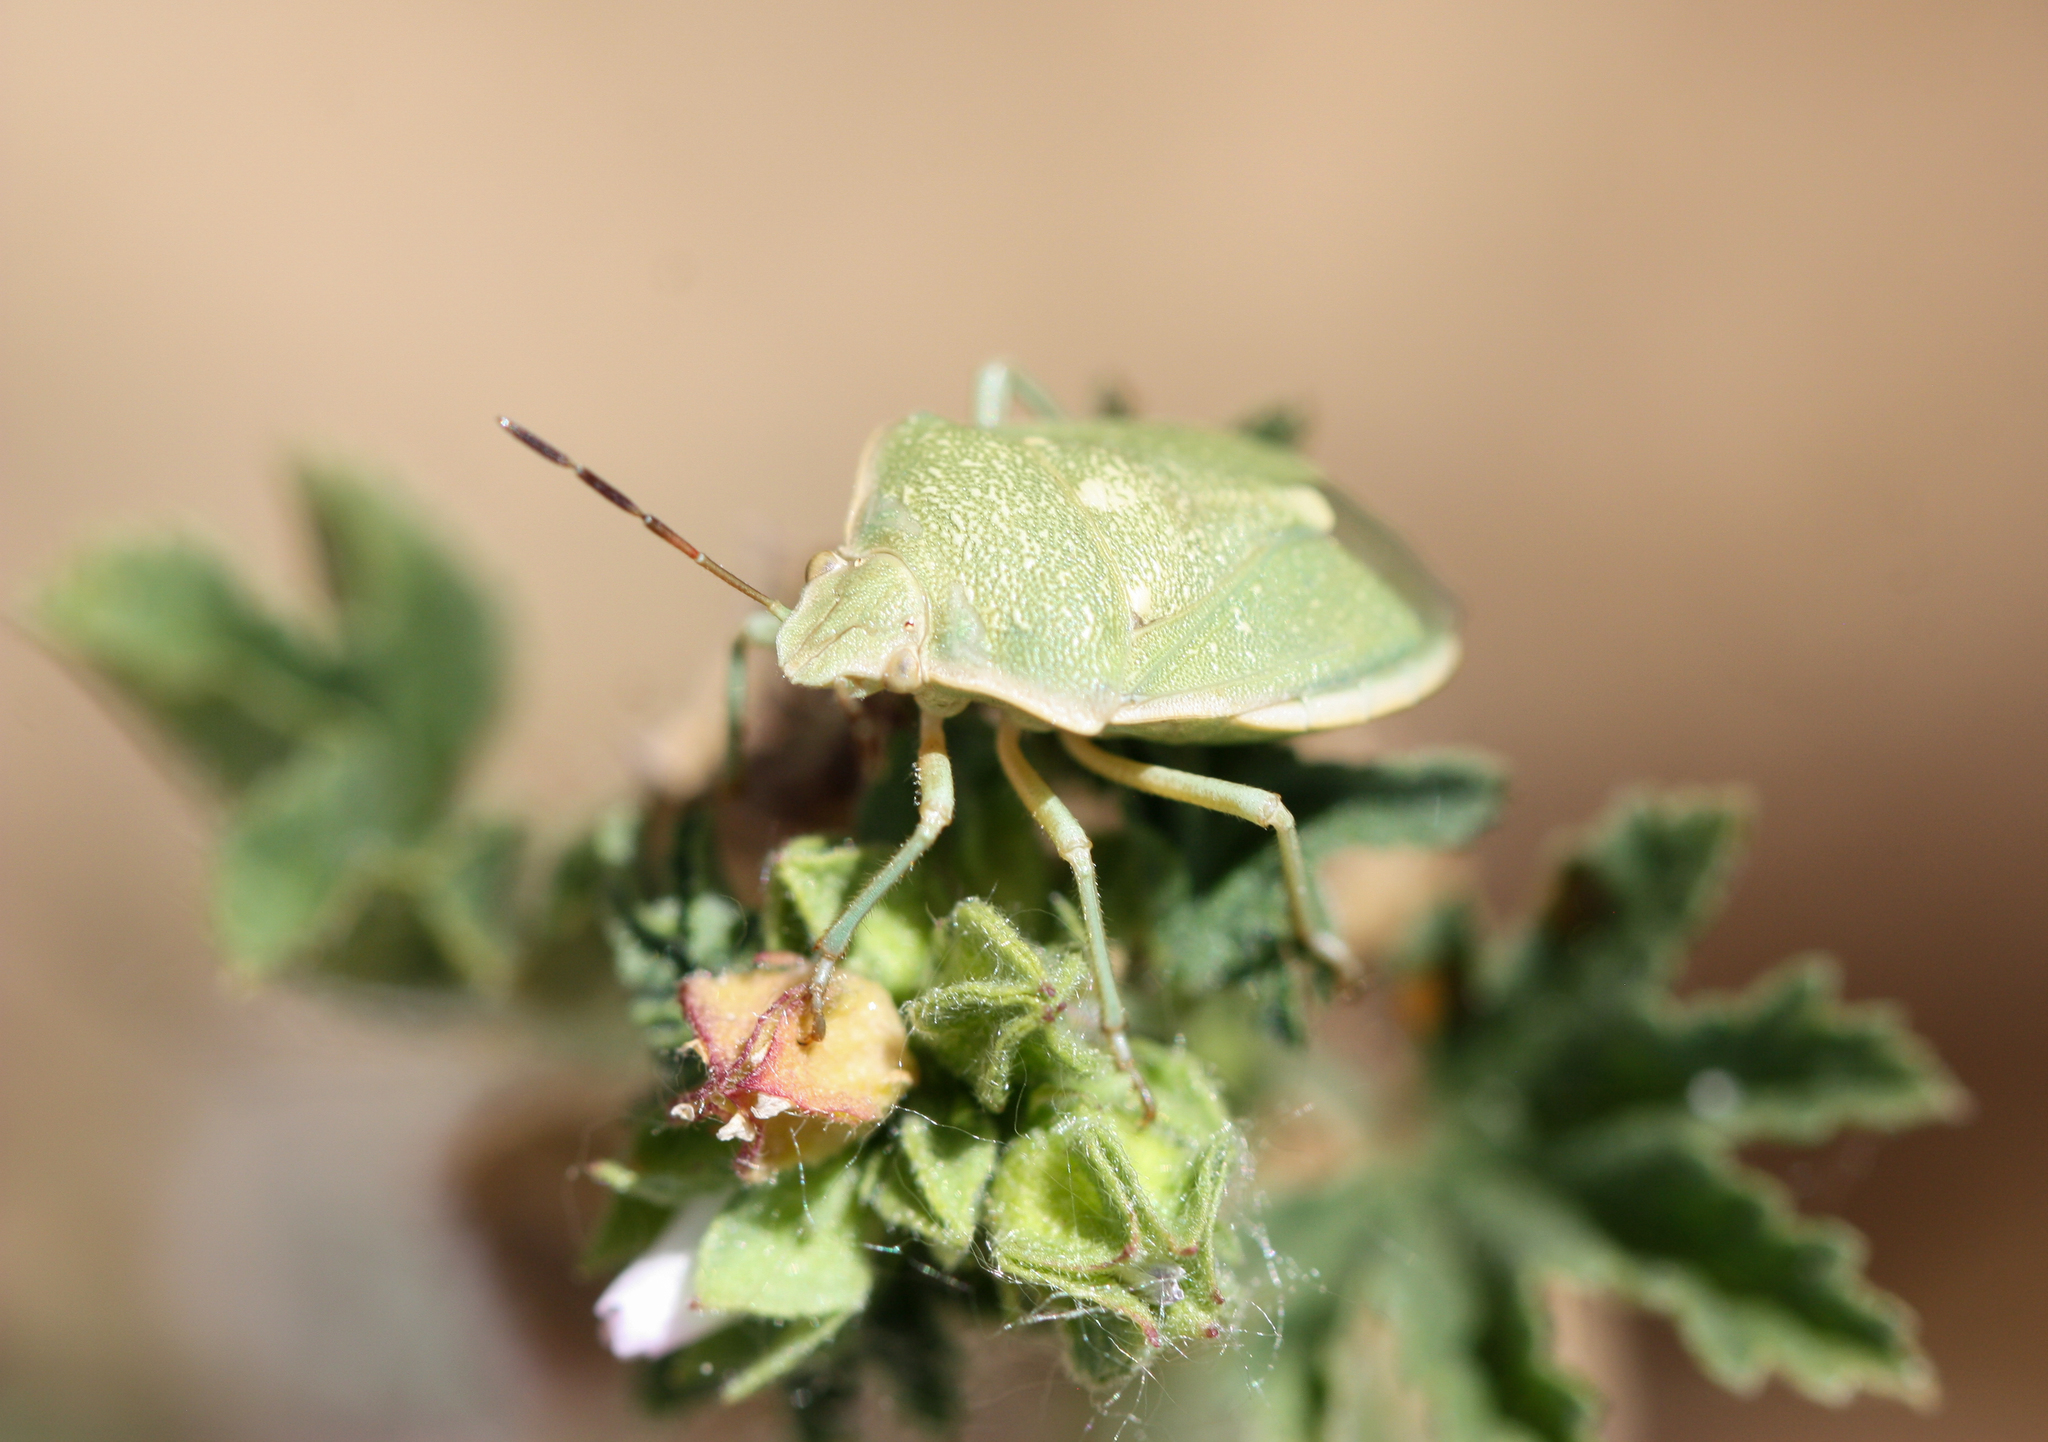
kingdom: Animalia
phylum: Arthropoda
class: Insecta
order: Hemiptera
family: Pentatomidae
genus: Chlorochroa
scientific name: Chlorochroa uhleri
